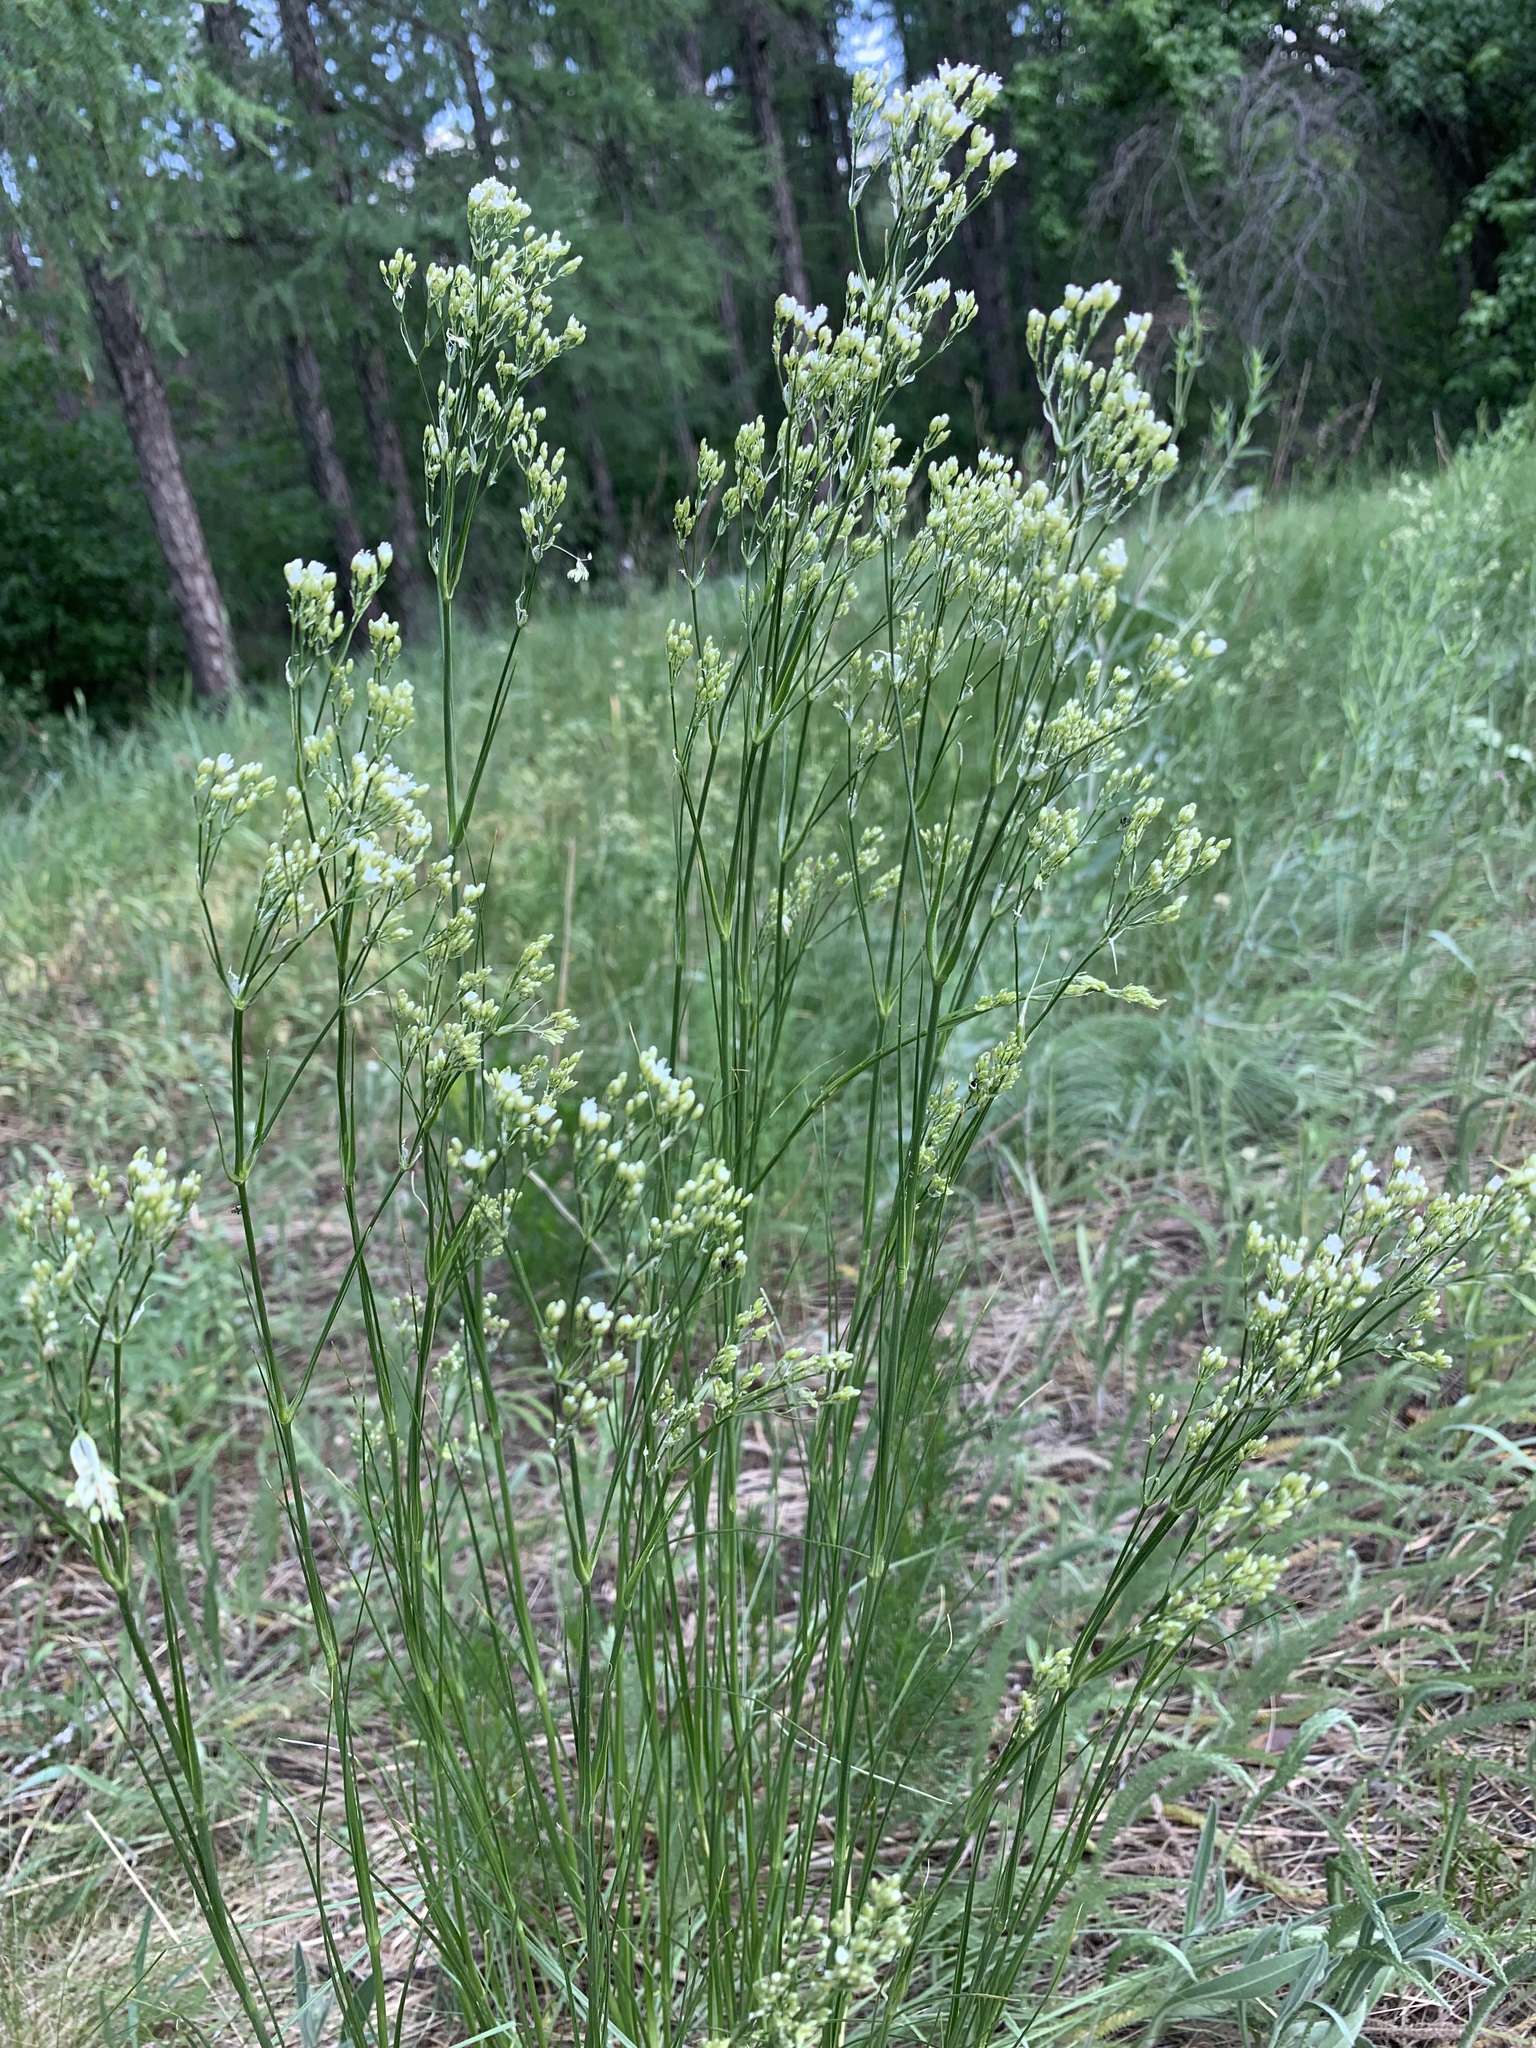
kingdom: Plantae
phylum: Tracheophyta
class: Magnoliopsida
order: Caryophyllales
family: Caryophyllaceae
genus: Eremogone
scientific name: Eremogone longifolia
